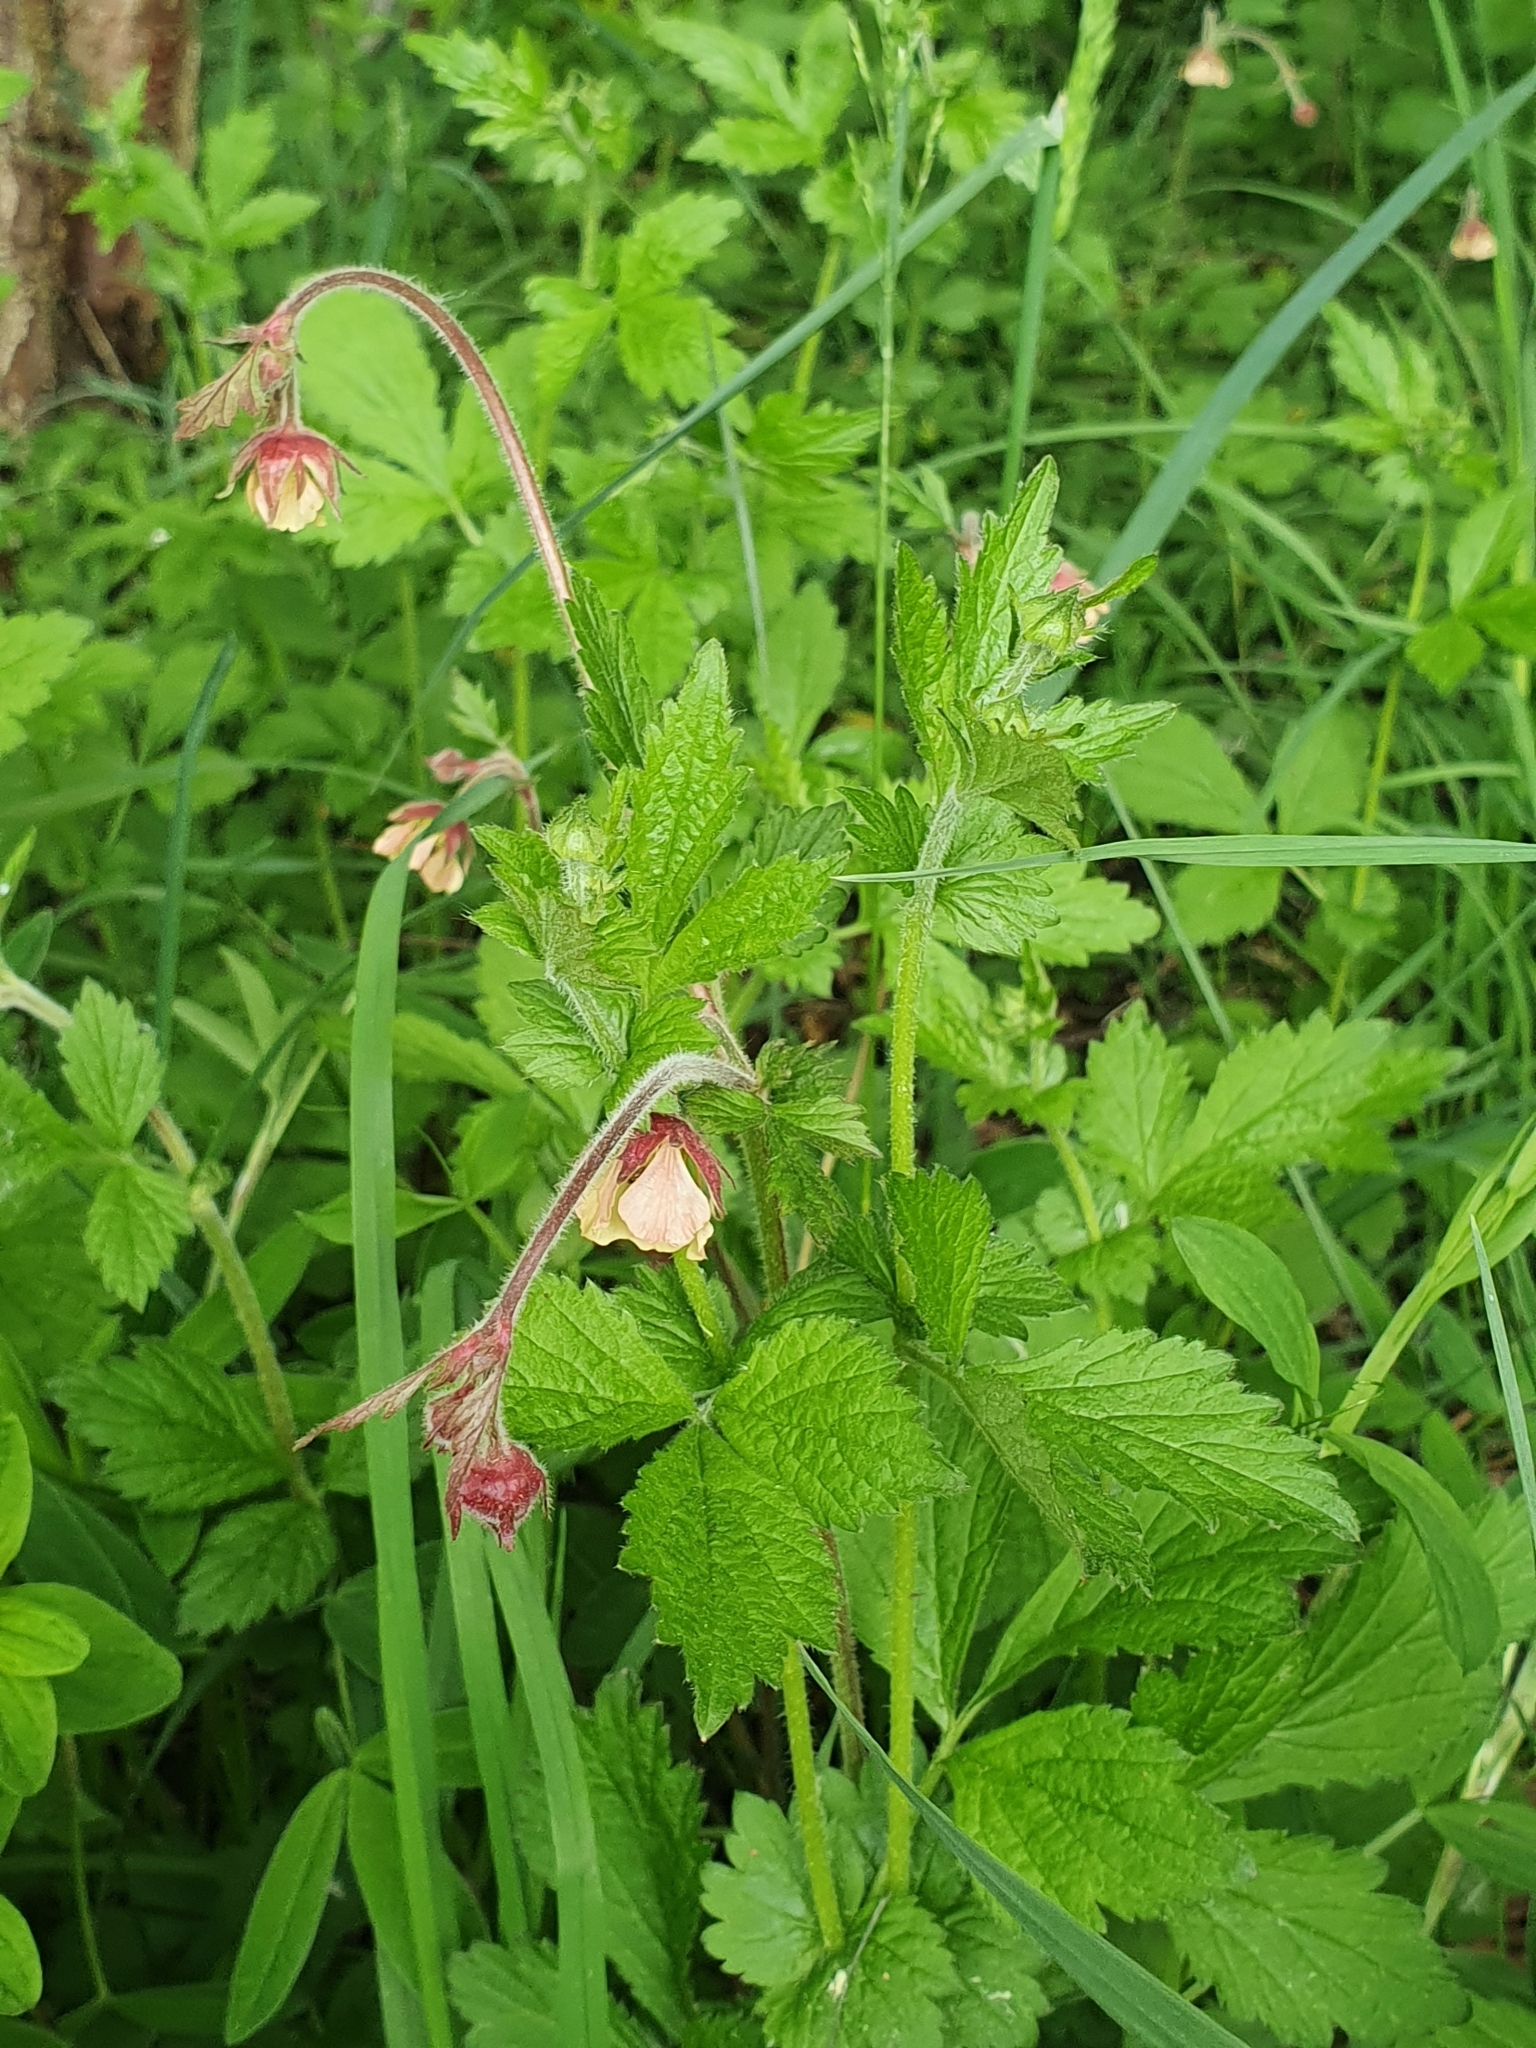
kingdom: Plantae
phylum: Tracheophyta
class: Magnoliopsida
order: Rosales
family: Rosaceae
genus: Geum
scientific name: Geum rivale
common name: Water avens
